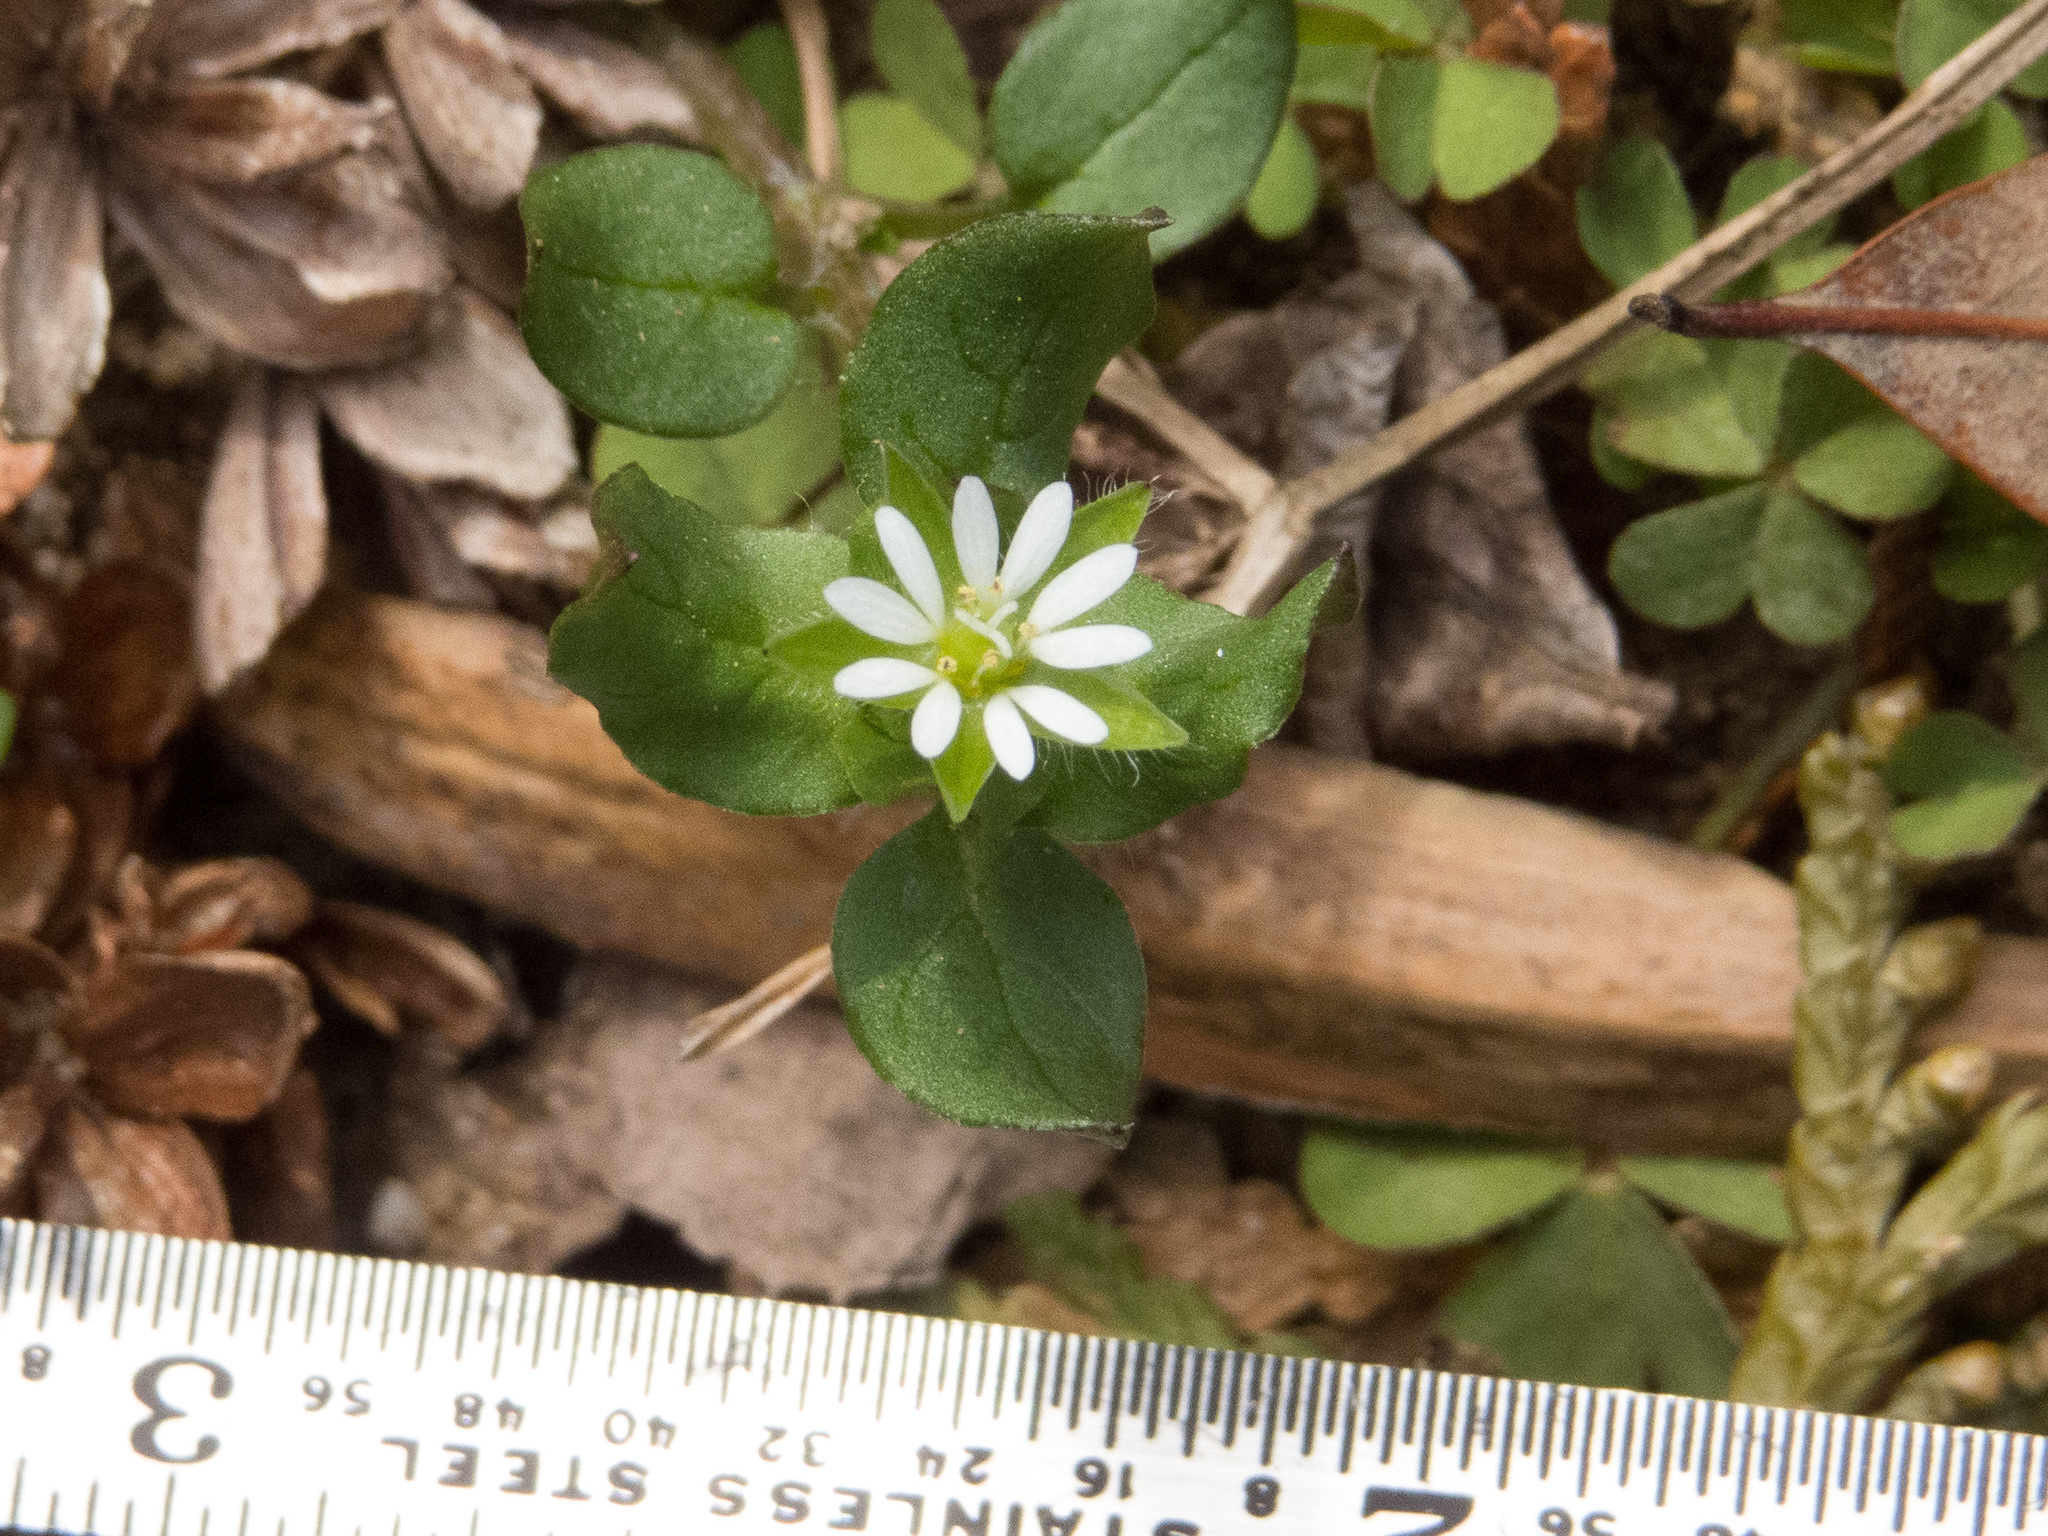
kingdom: Plantae
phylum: Tracheophyta
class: Magnoliopsida
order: Caryophyllales
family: Caryophyllaceae
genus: Stellaria
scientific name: Stellaria media
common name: Common chickweed
